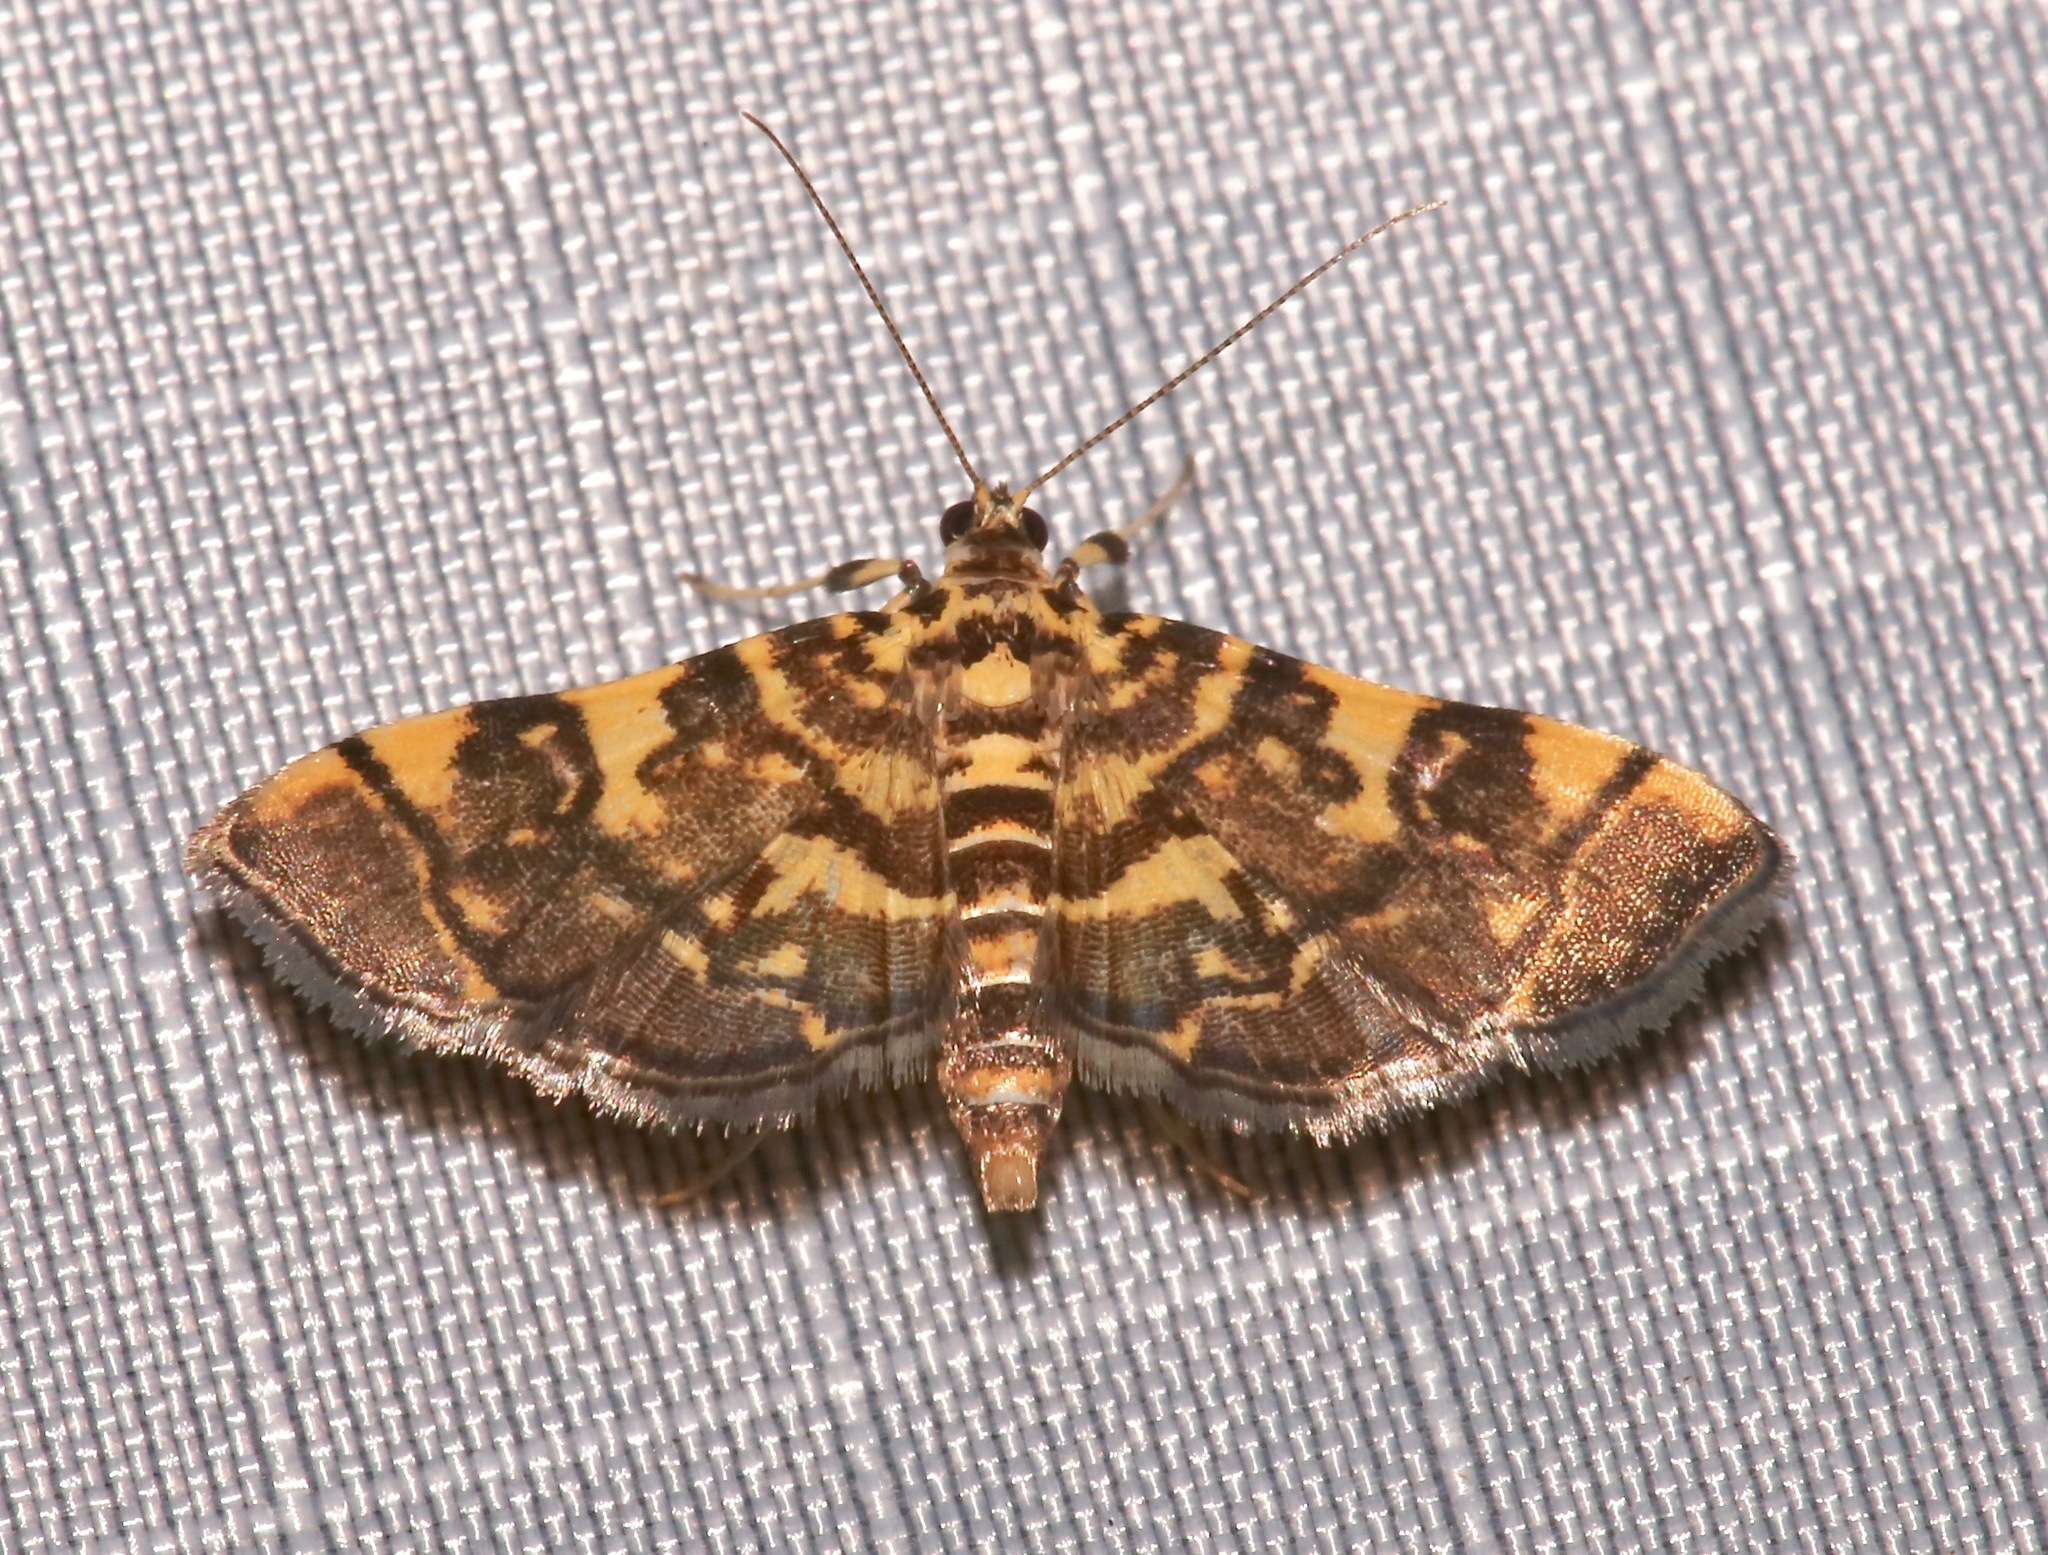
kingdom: Animalia
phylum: Arthropoda
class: Insecta
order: Lepidoptera
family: Crambidae
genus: Apogeshna
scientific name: Apogeshna stenialis
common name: Checkered apogeshna moth
